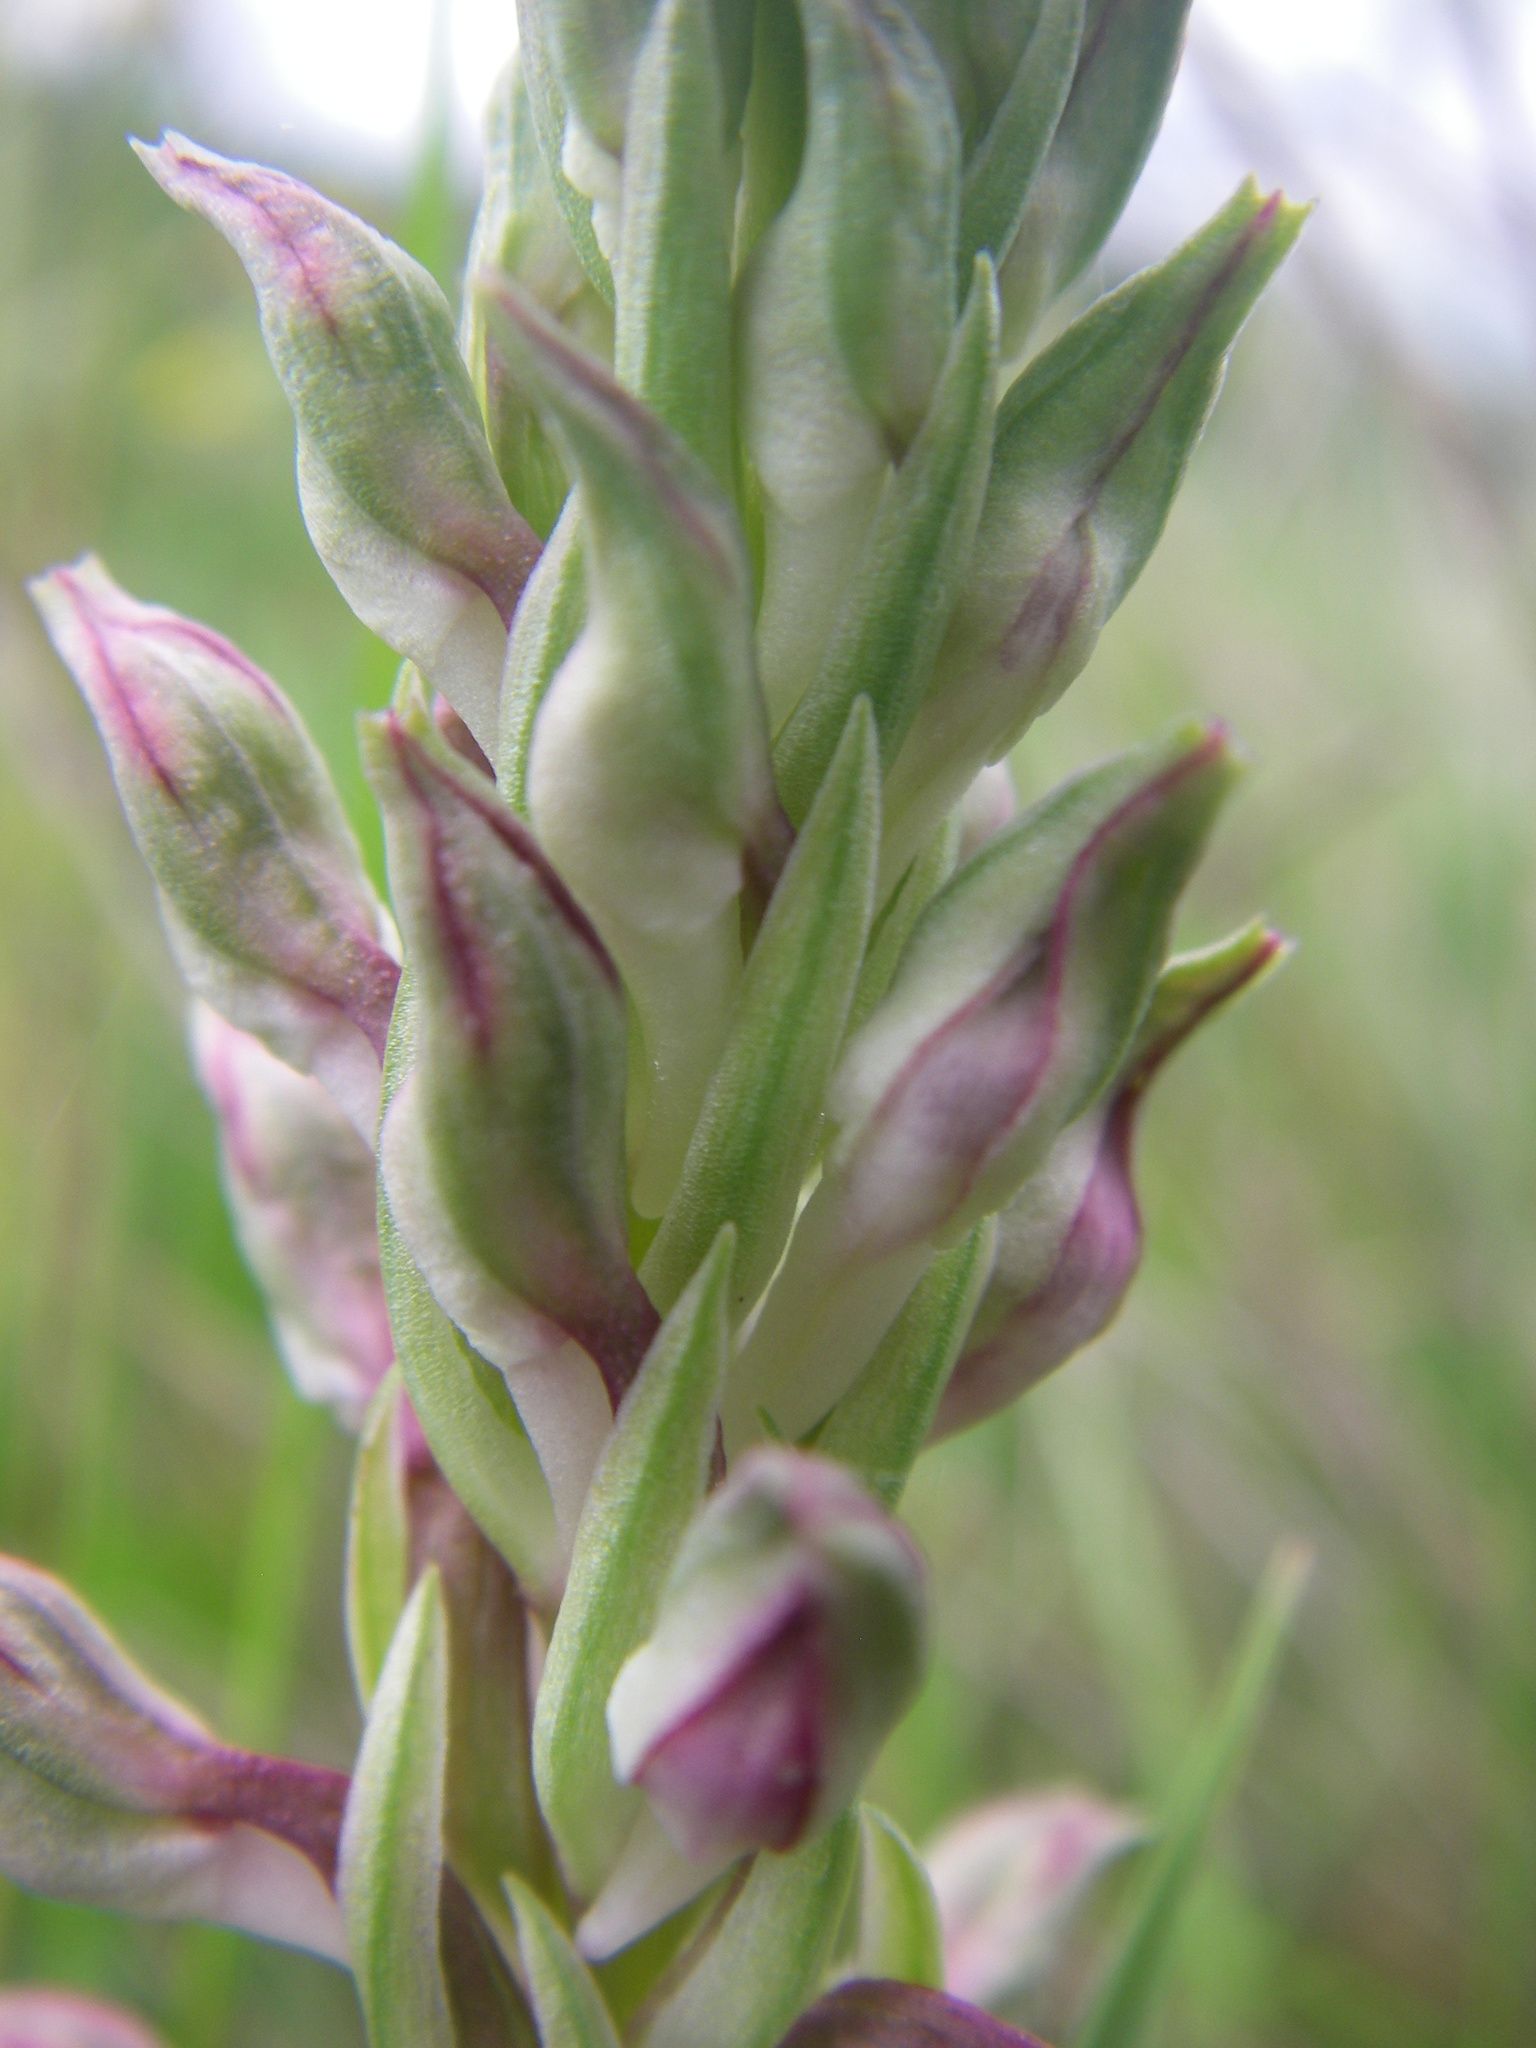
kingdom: Plantae
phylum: Tracheophyta
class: Liliopsida
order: Asparagales
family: Orchidaceae
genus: Anacamptis
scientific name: Anacamptis coriophora
